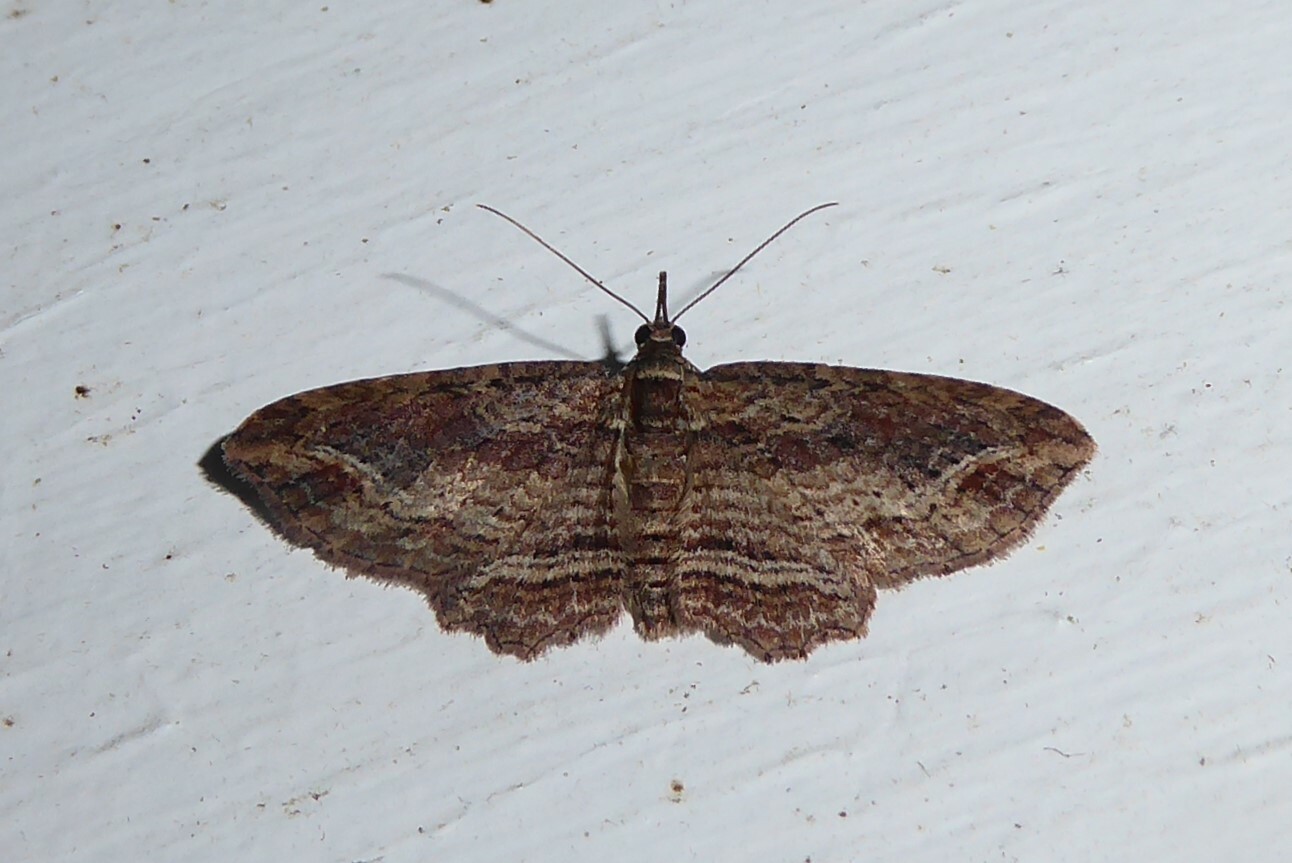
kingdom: Animalia
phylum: Arthropoda
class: Insecta
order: Lepidoptera
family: Geometridae
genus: Chloroclystis
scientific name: Chloroclystis filata
